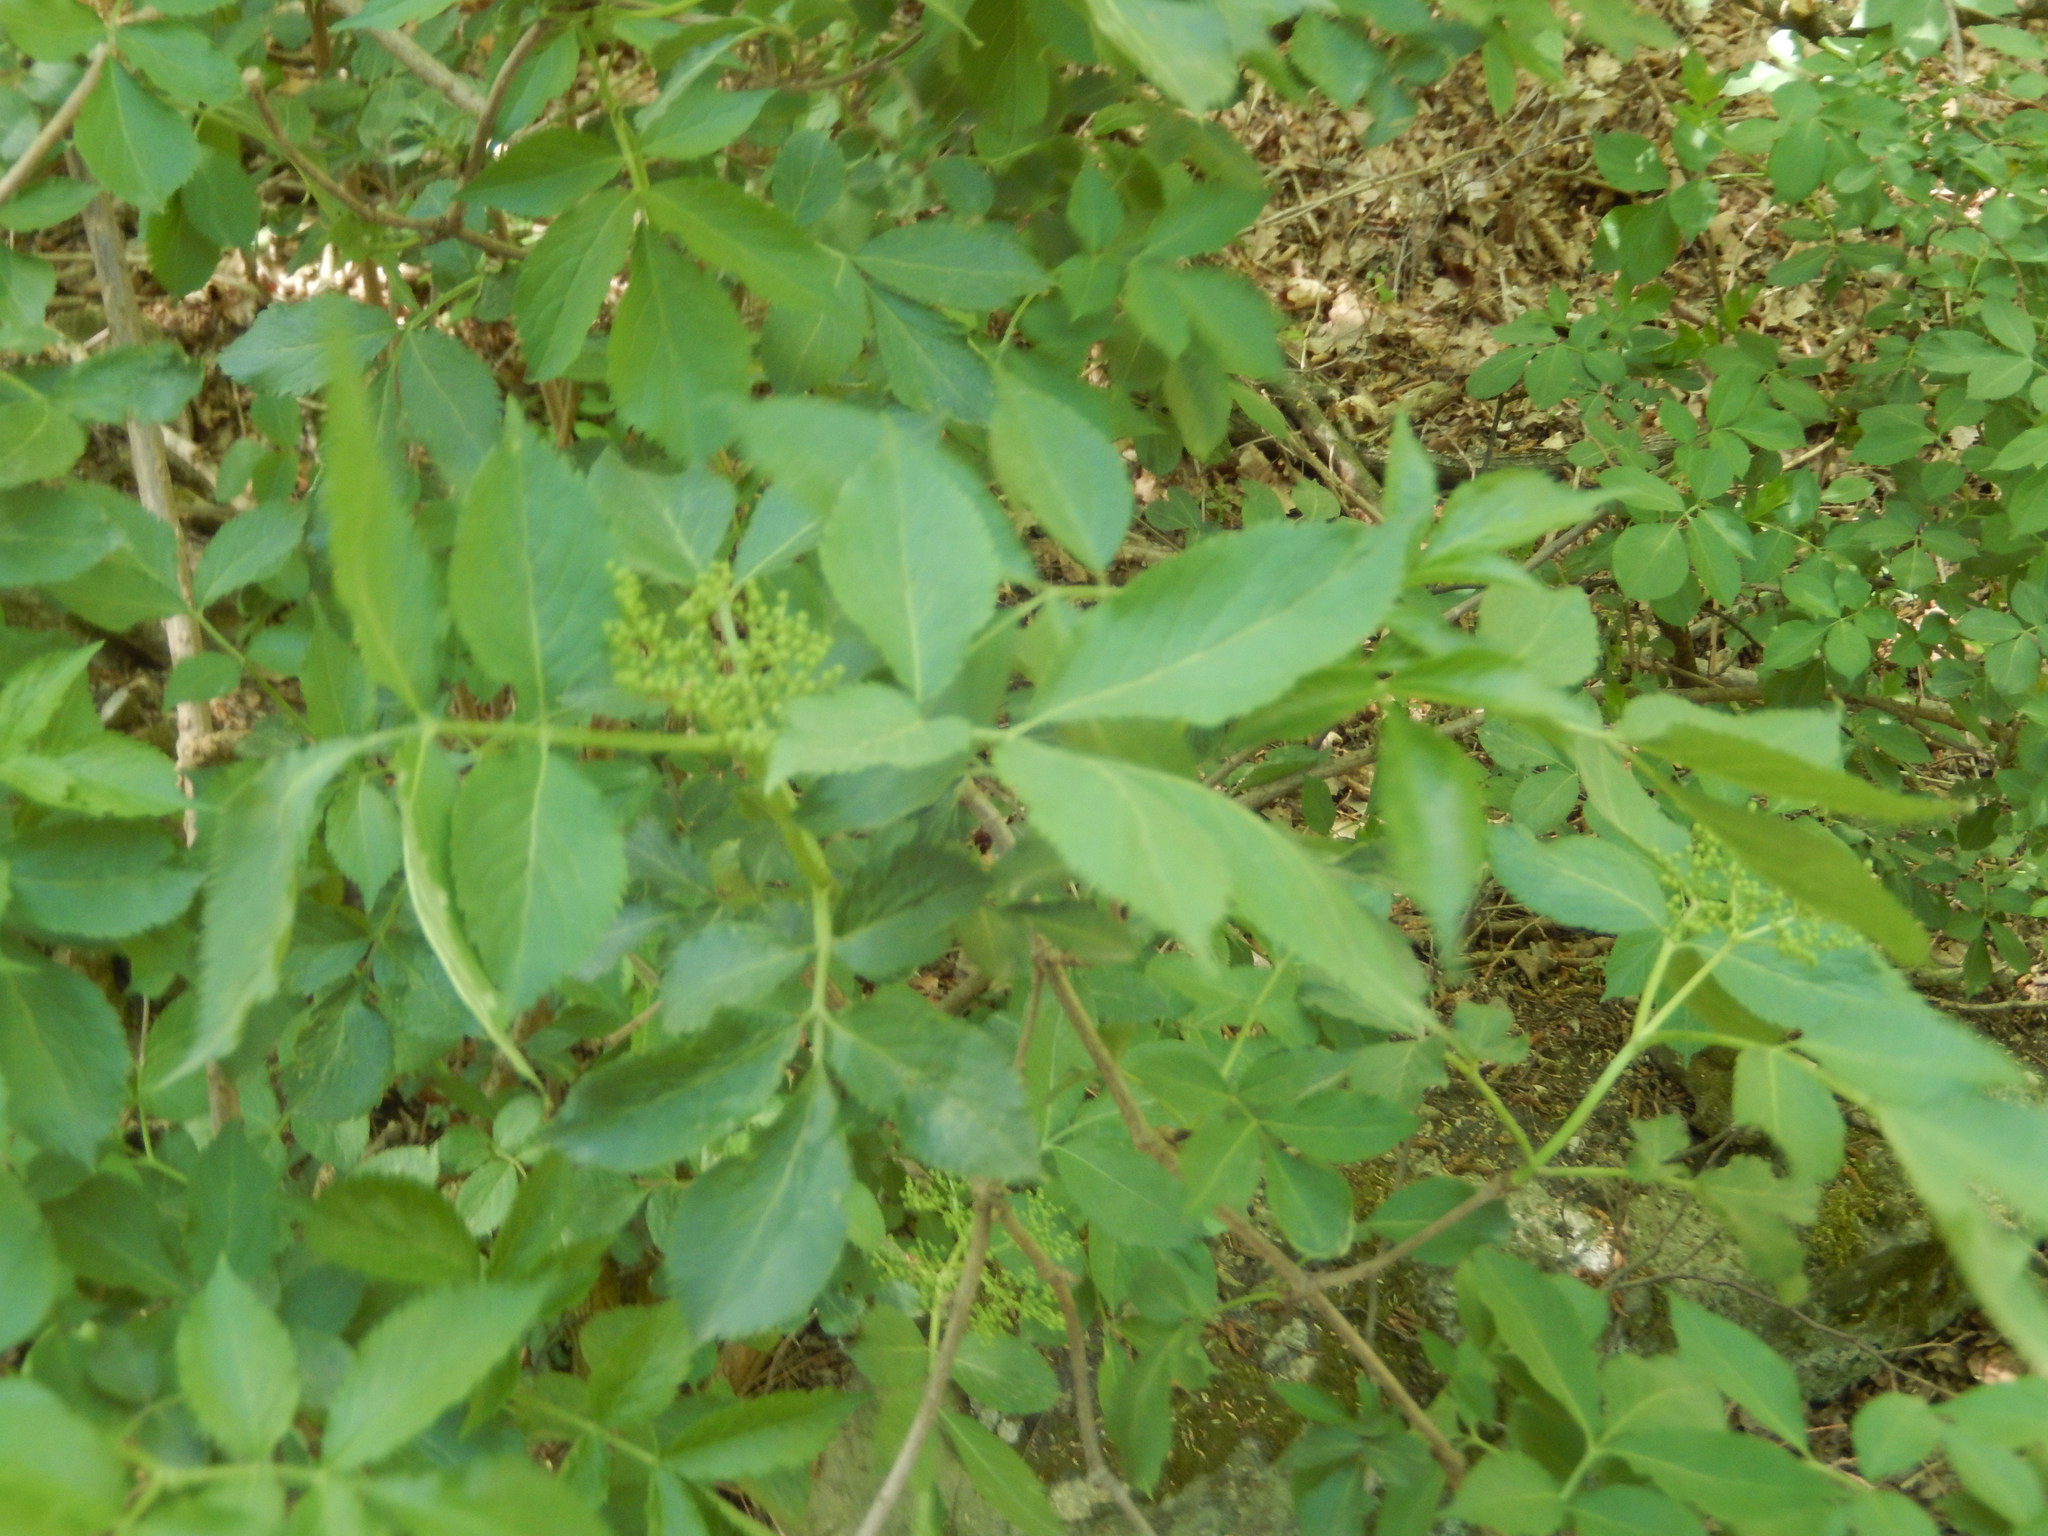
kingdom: Plantae
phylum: Tracheophyta
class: Magnoliopsida
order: Dipsacales
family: Viburnaceae
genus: Sambucus
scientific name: Sambucus nigra
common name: Elder
